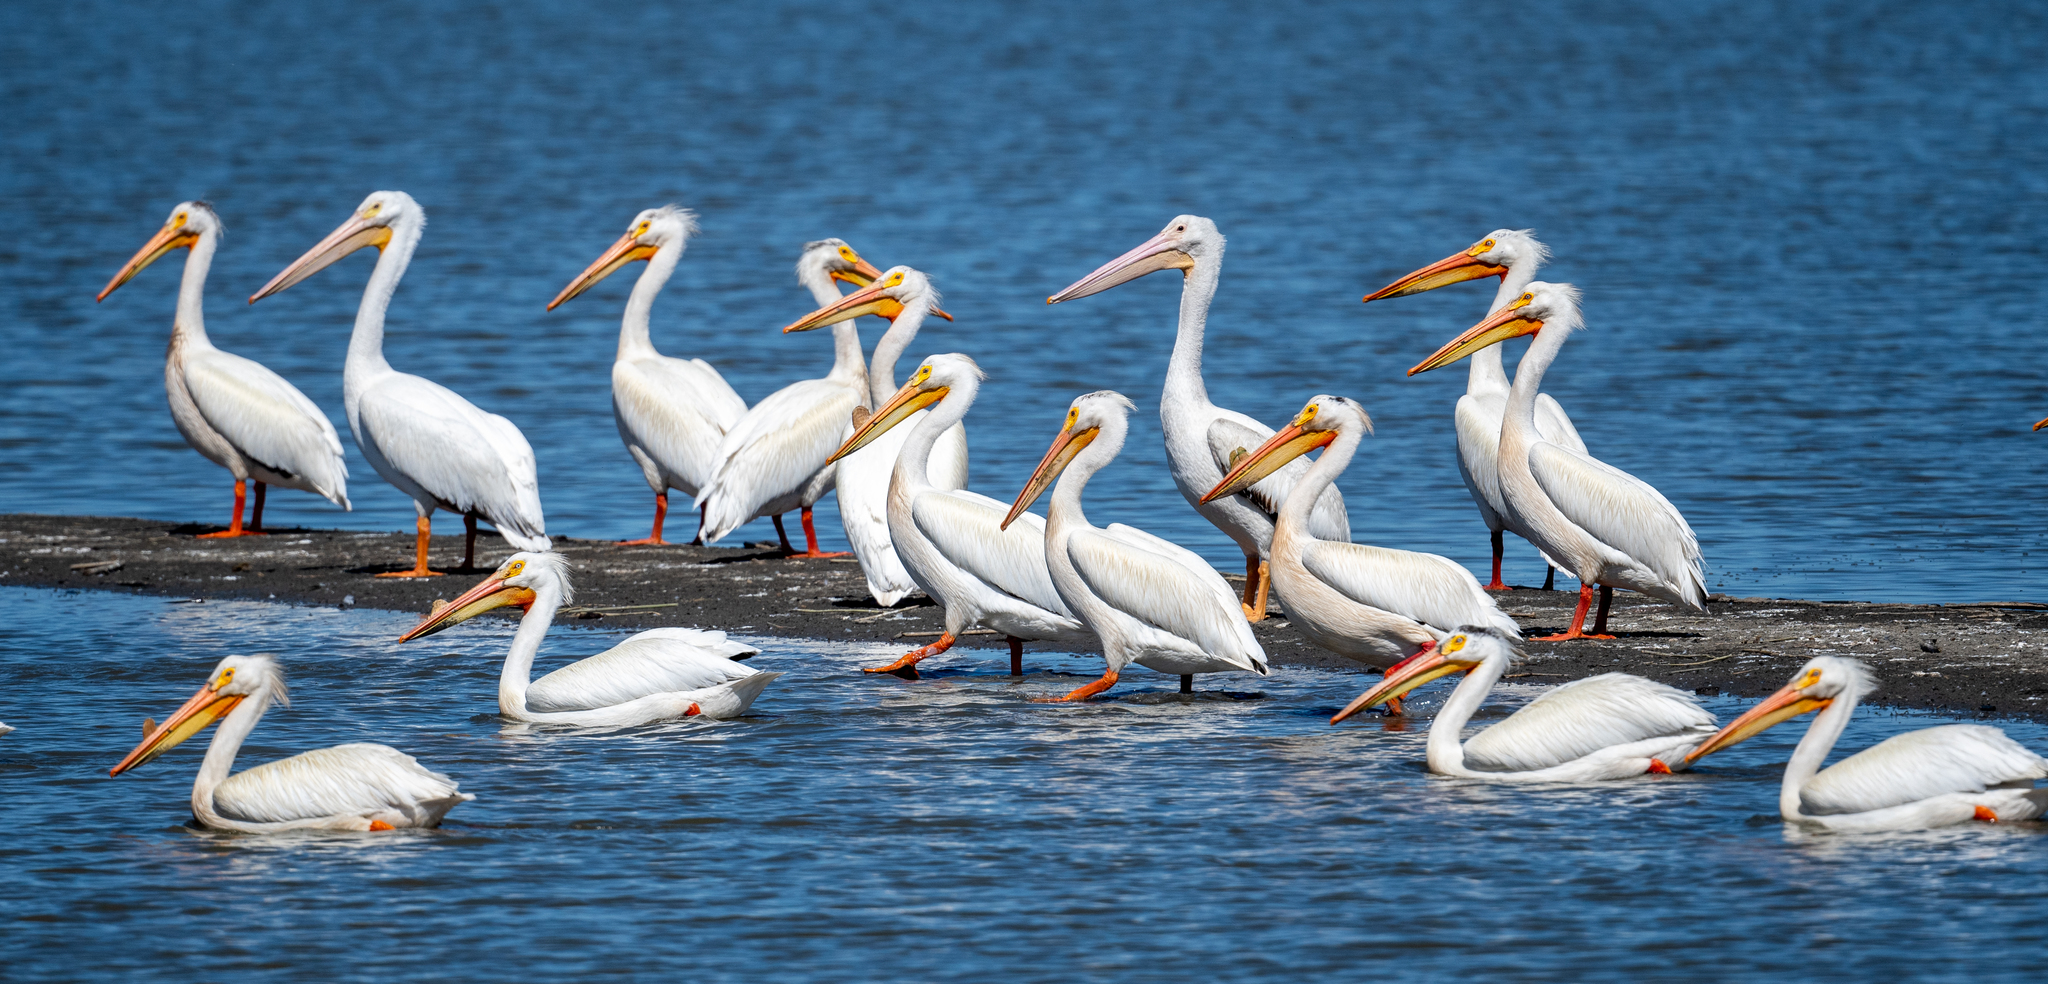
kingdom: Animalia
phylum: Chordata
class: Aves
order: Pelecaniformes
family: Pelecanidae
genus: Pelecanus
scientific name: Pelecanus erythrorhynchos
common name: American white pelican
